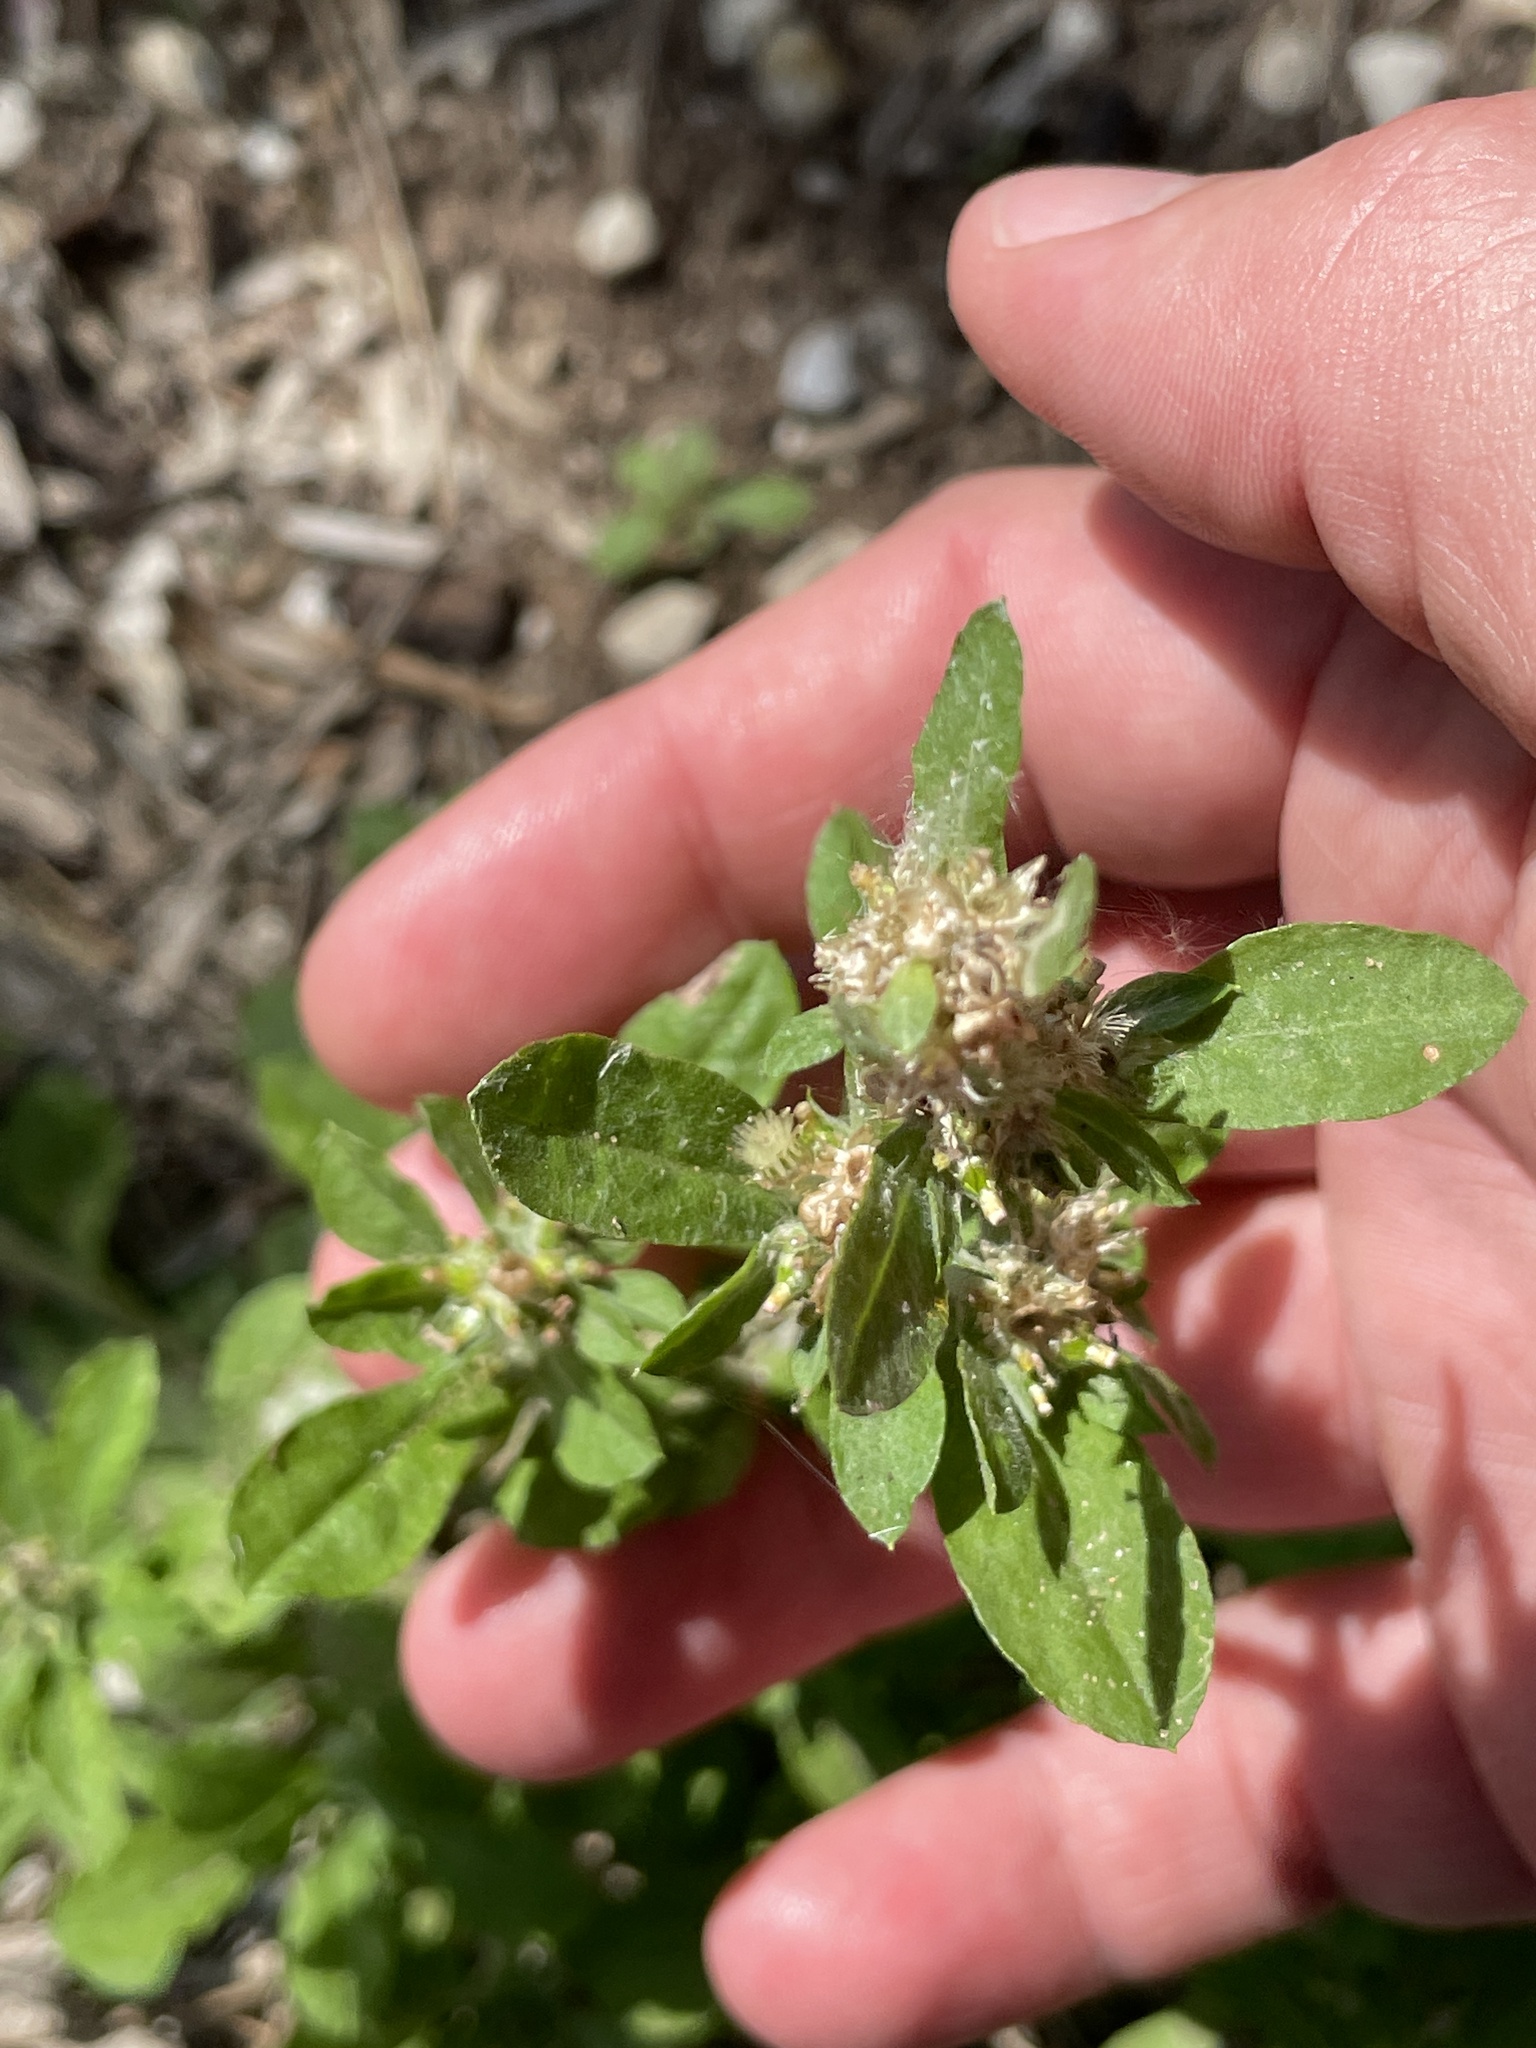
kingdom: Plantae
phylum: Tracheophyta
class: Magnoliopsida
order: Asterales
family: Asteraceae
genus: Gamochaeta
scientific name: Gamochaeta pensylvanica
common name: Pennsylvania everlasting
